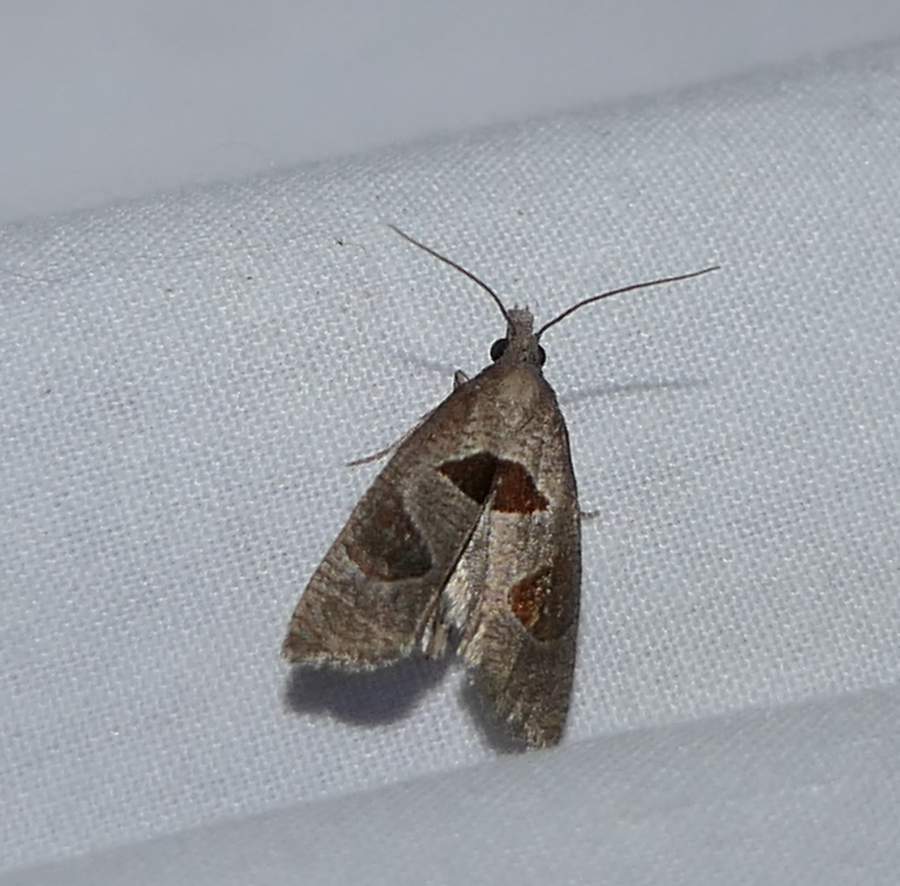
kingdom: Animalia
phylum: Arthropoda
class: Insecta
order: Lepidoptera
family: Tortricidae
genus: Pelochrista
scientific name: Pelochrista dorsisignatana
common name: Triangle-backed pelochrista moth
